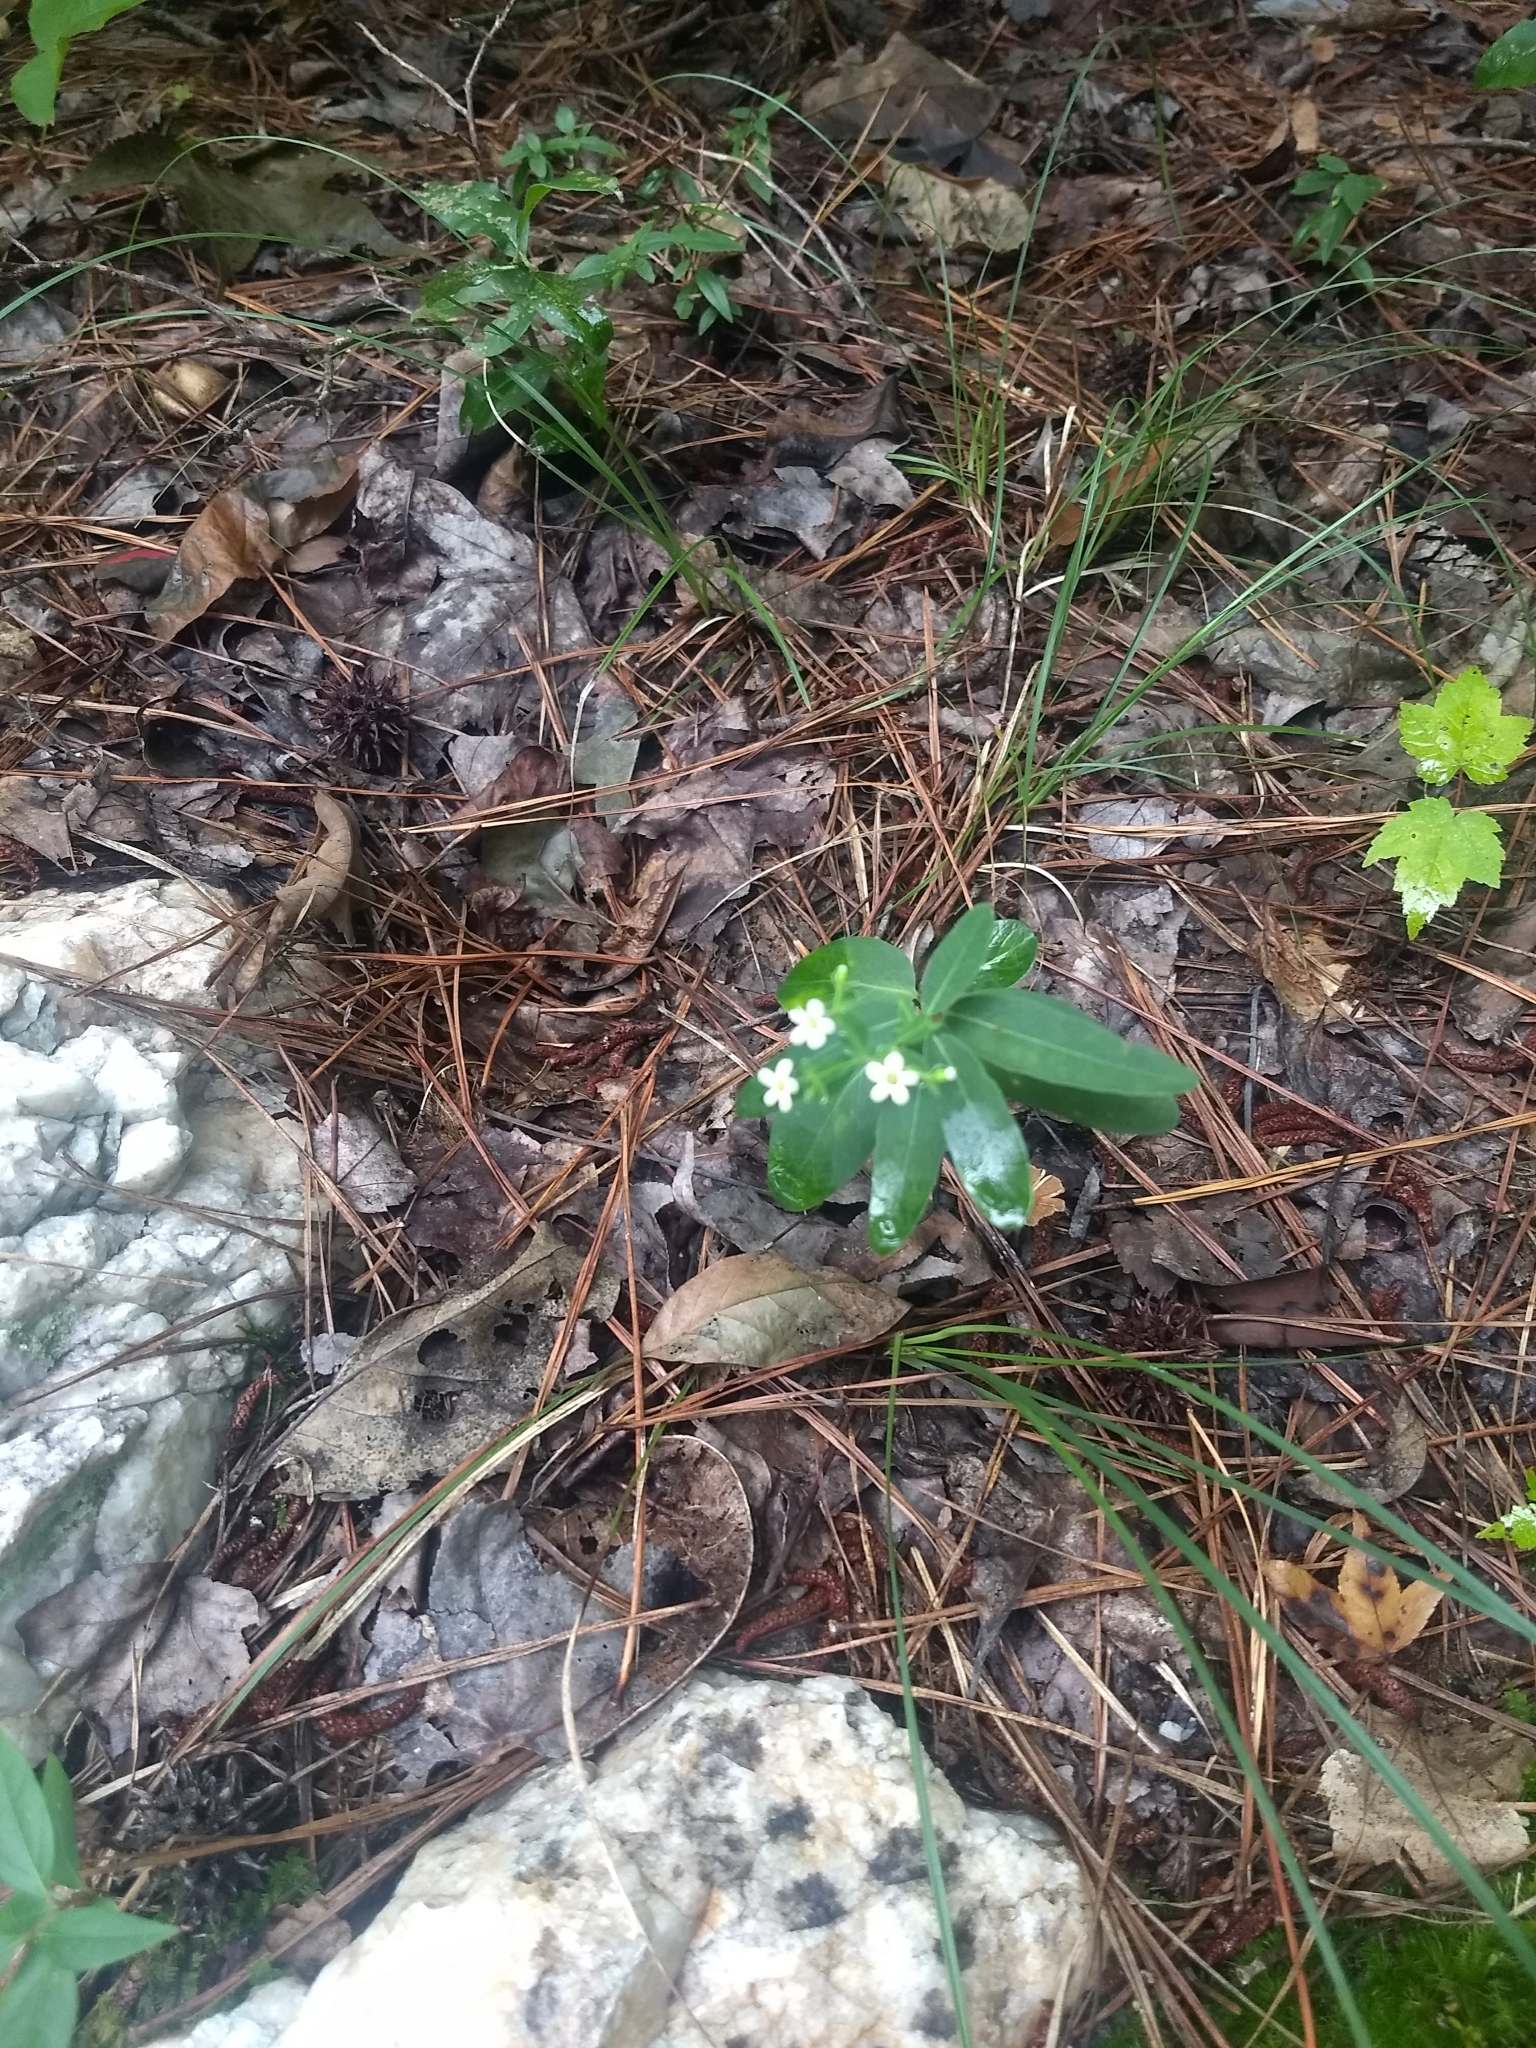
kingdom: Plantae
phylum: Tracheophyta
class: Magnoliopsida
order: Malpighiales
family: Euphorbiaceae
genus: Euphorbia
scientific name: Euphorbia corollata
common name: Flowering spurge
